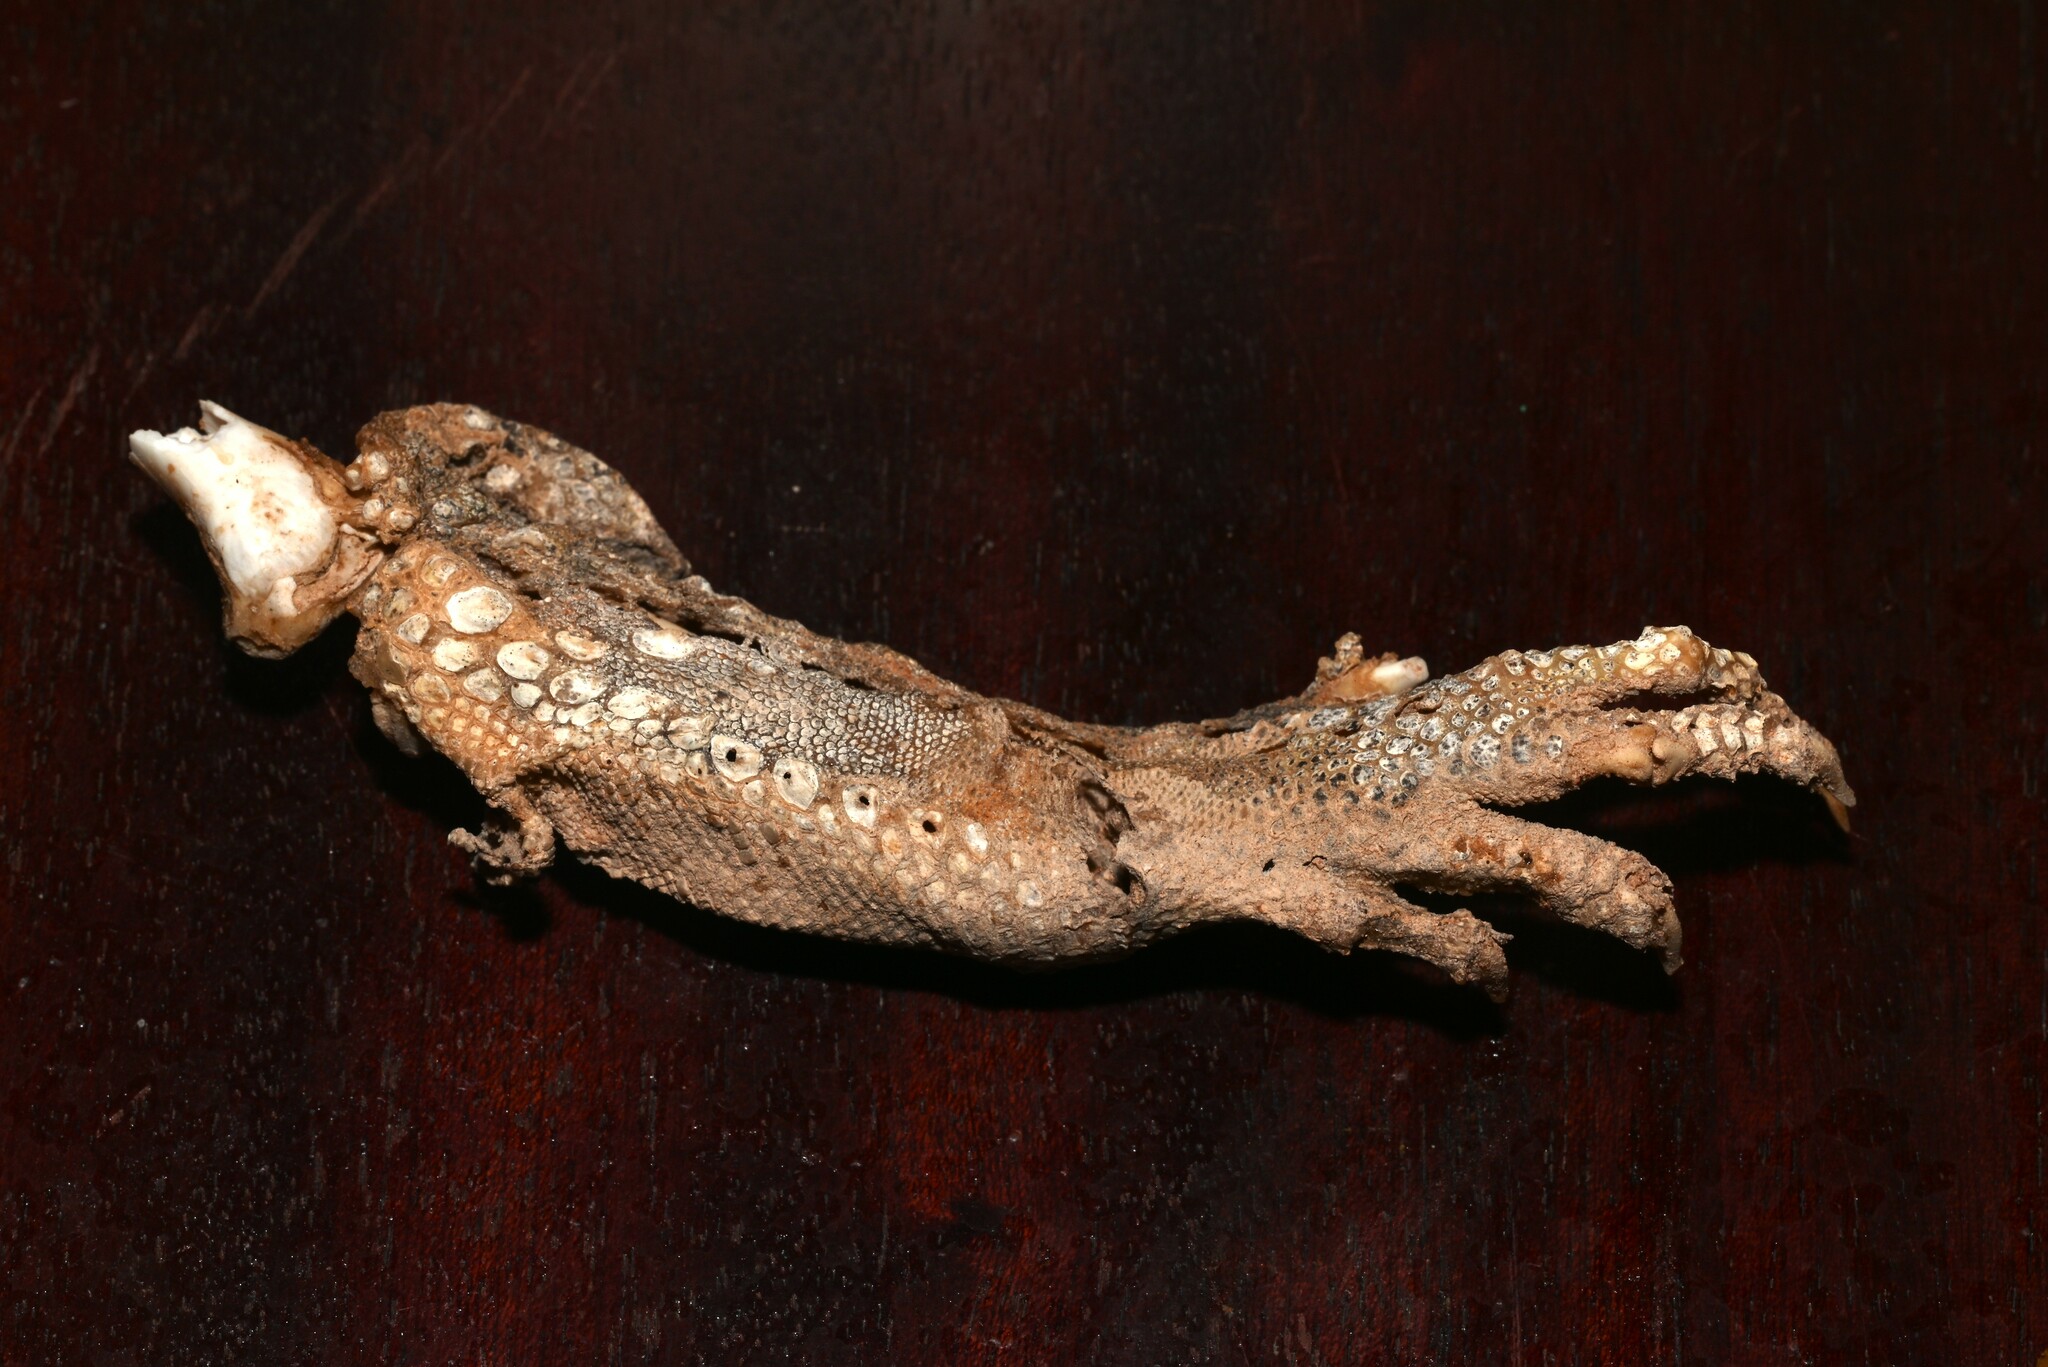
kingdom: Animalia
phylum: Chordata
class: Squamata
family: Agamidae
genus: Uromastyx
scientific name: Uromastyx aegyptia
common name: Egyptian mastigure
